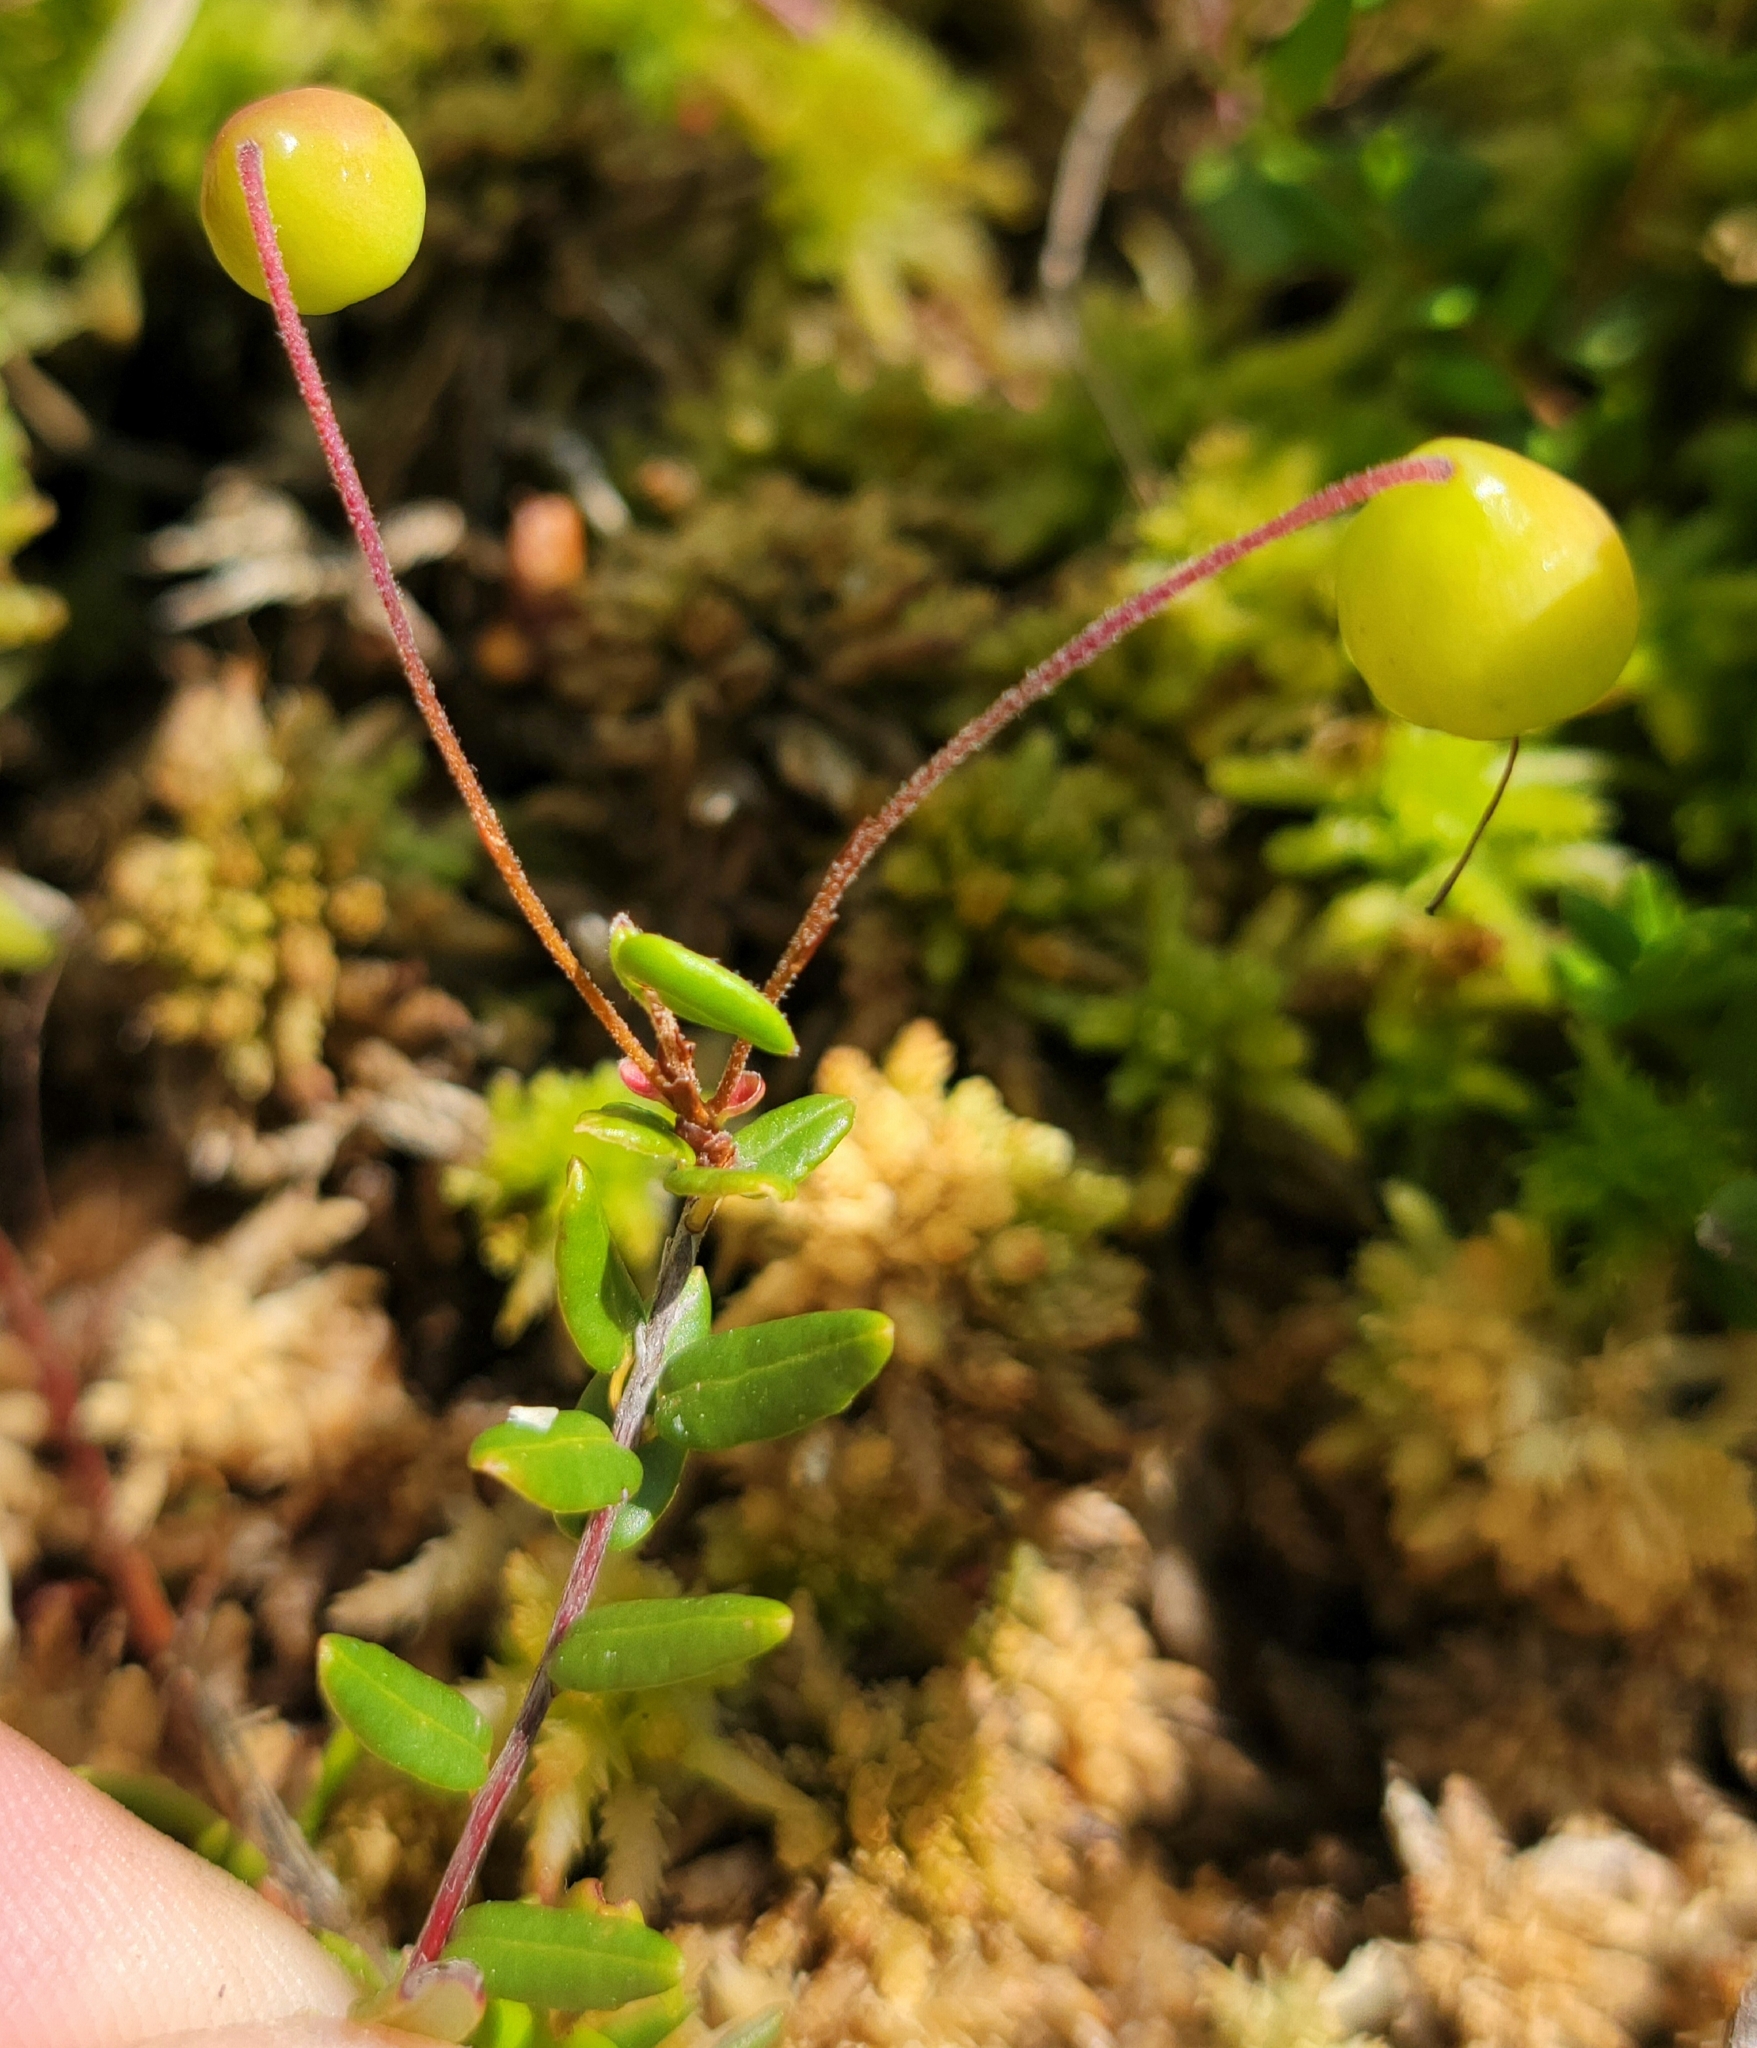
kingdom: Plantae
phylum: Tracheophyta
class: Magnoliopsida
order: Ericales
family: Ericaceae
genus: Vaccinium
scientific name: Vaccinium oxycoccos
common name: Cranberry
